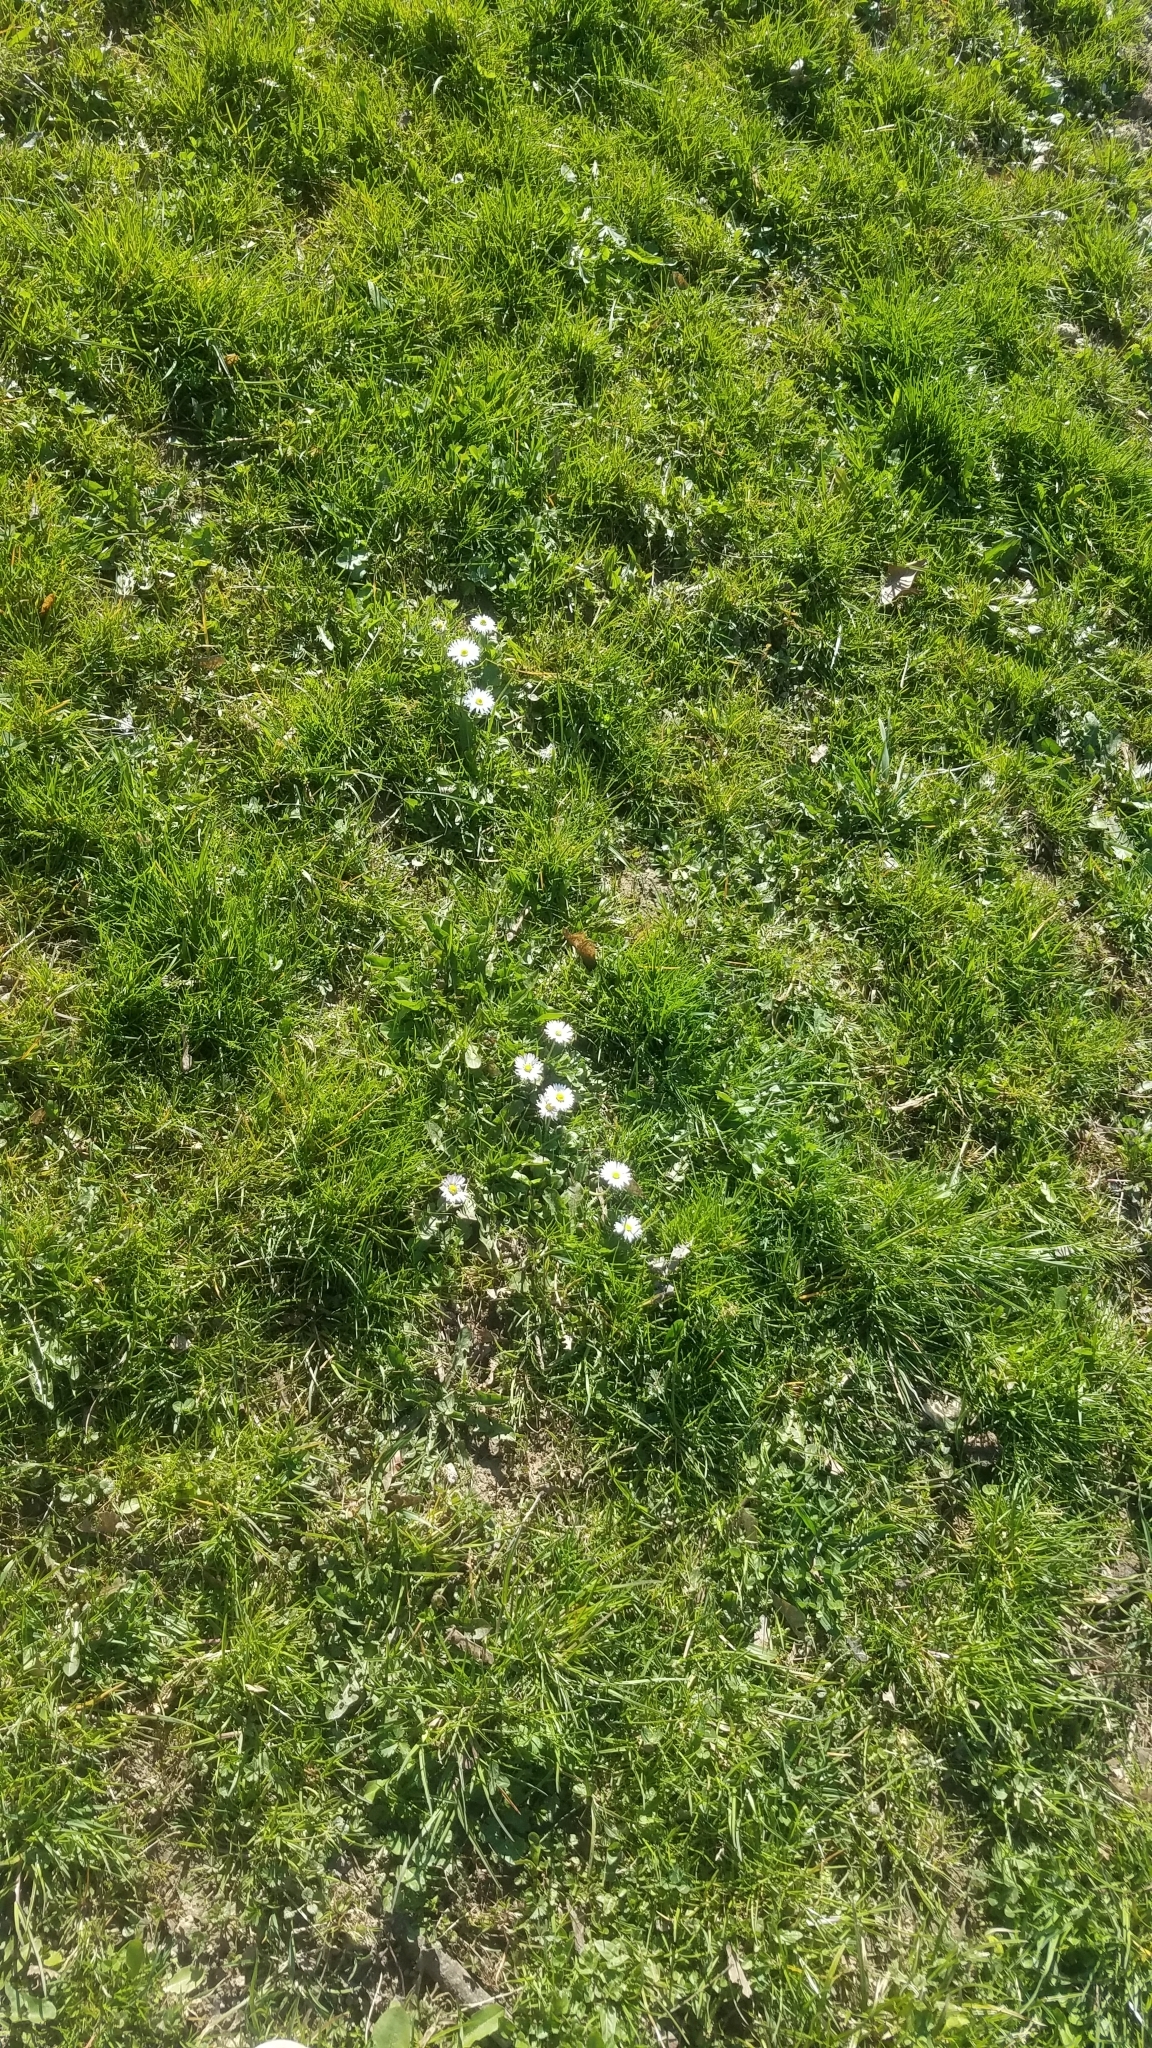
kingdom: Plantae
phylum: Tracheophyta
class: Magnoliopsida
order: Asterales
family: Asteraceae
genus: Bellis
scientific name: Bellis perennis
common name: Lawndaisy
